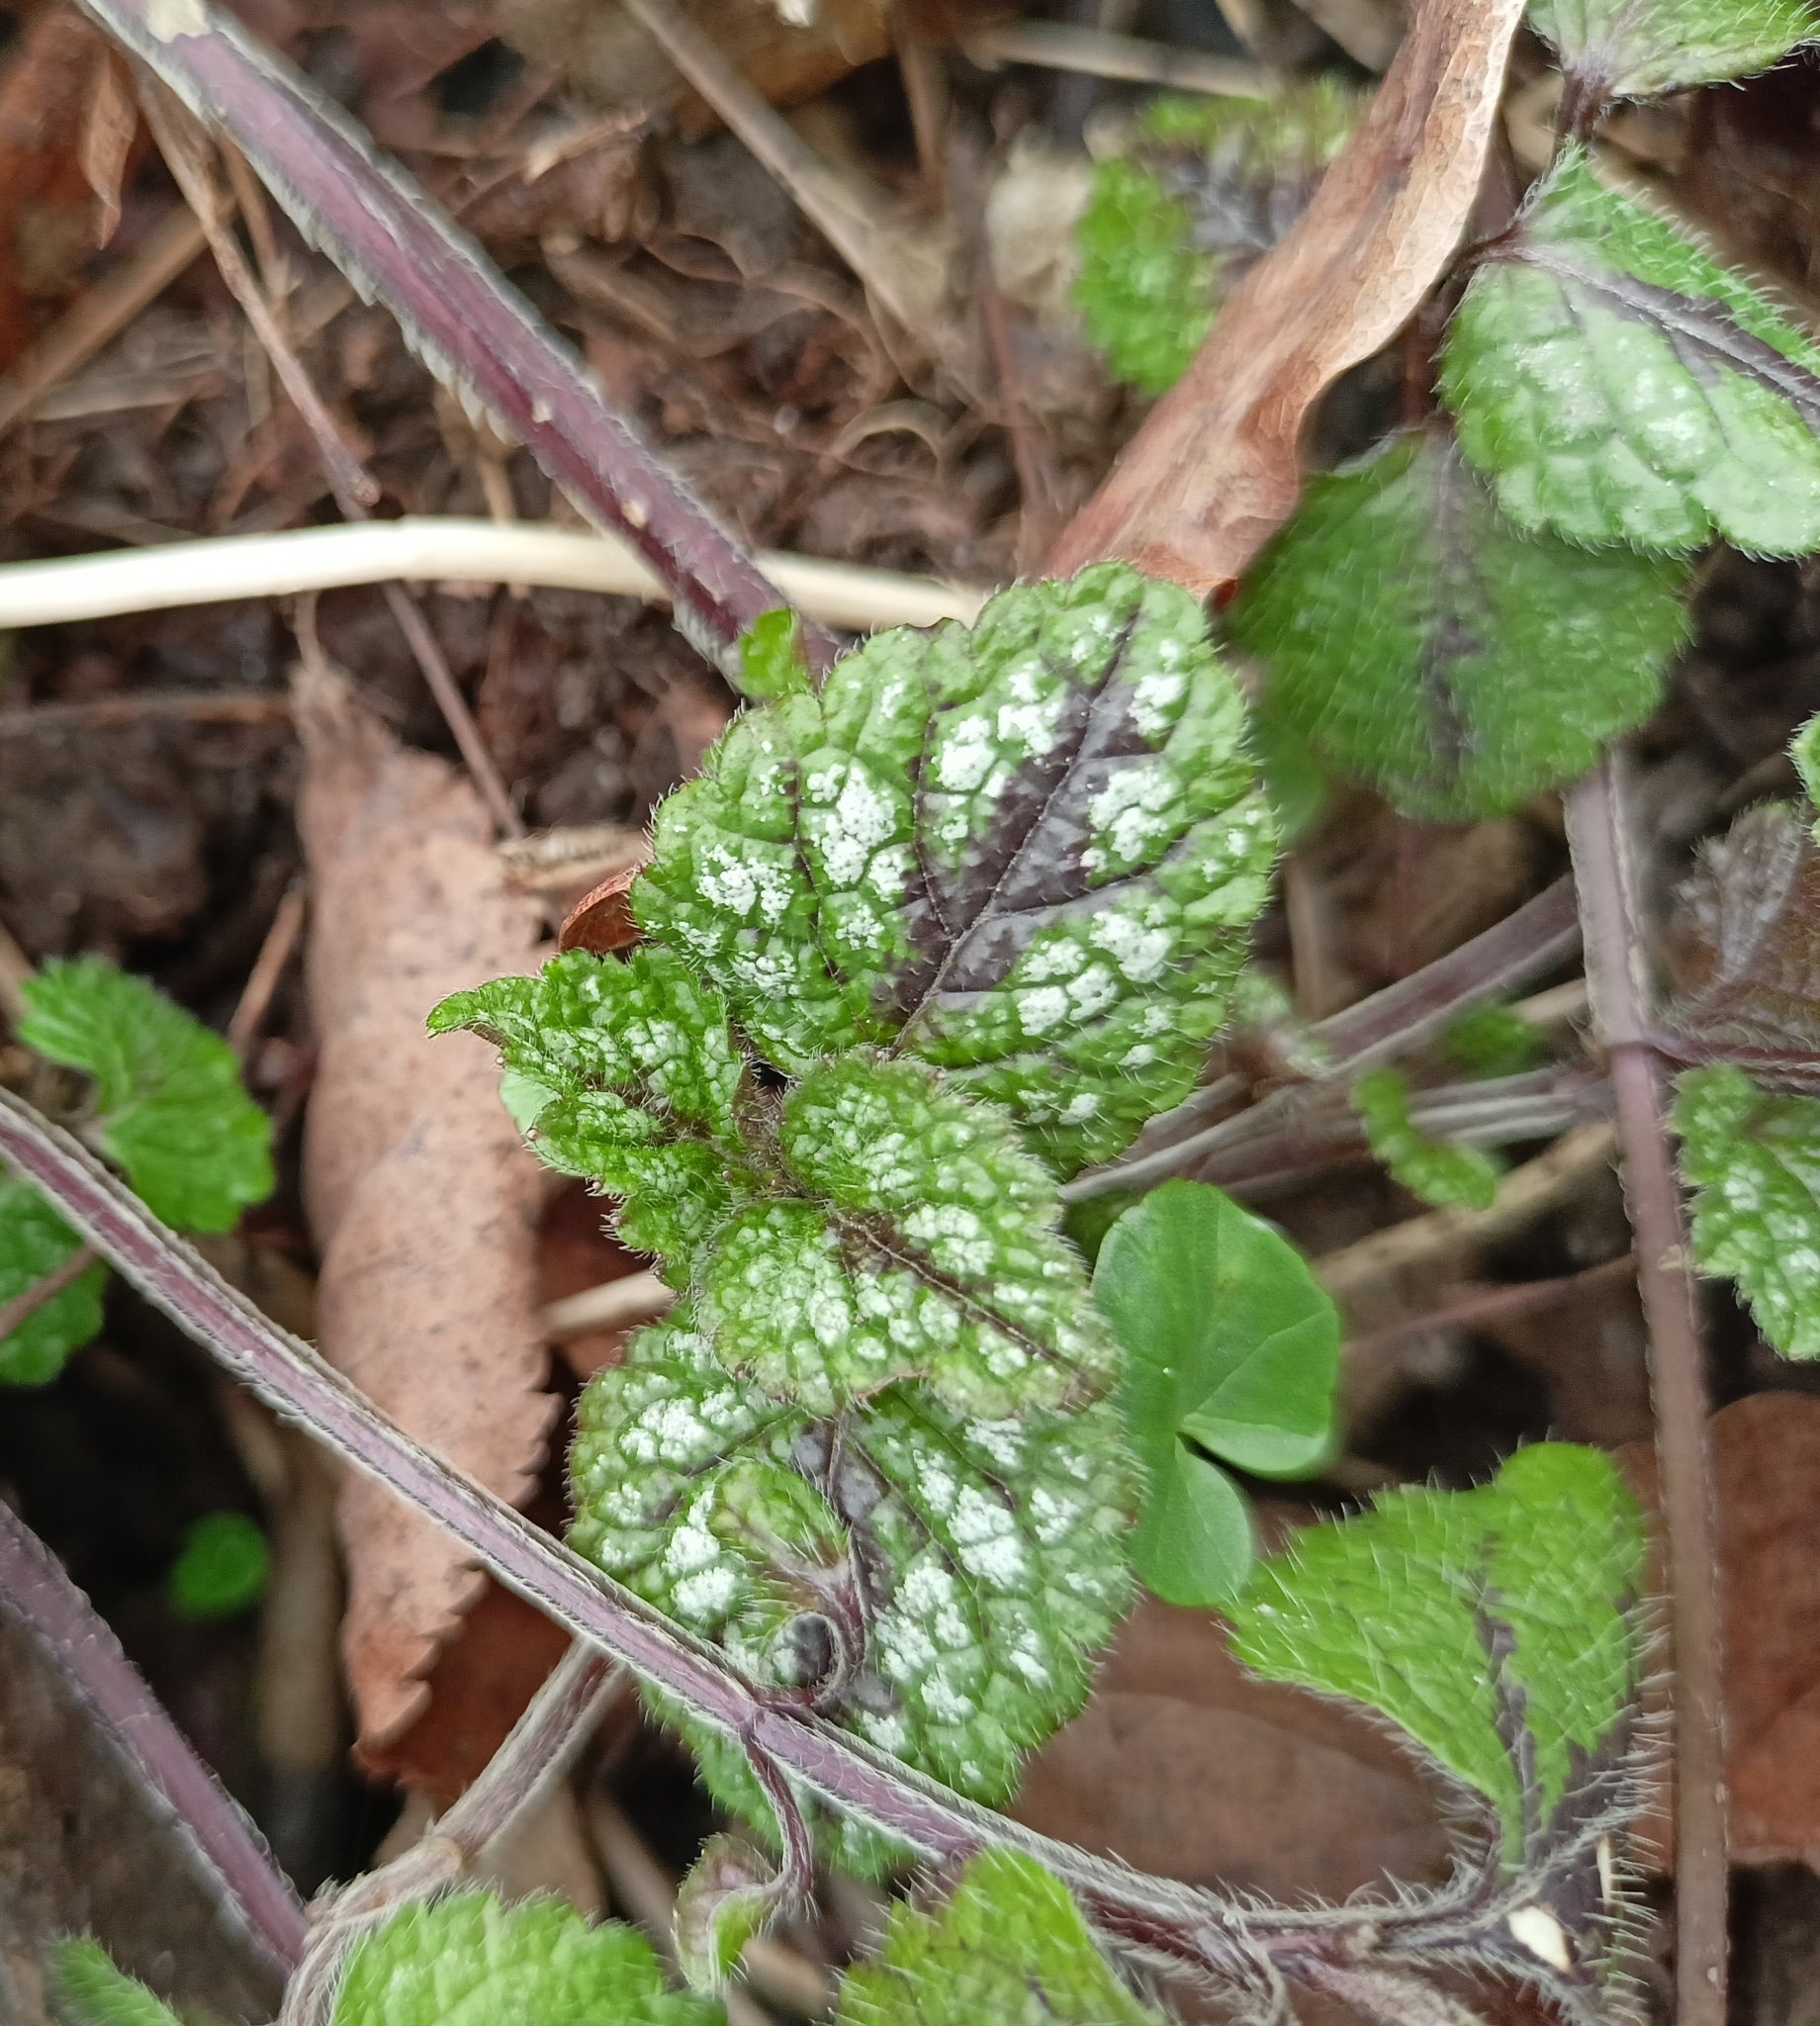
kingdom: Plantae
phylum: Tracheophyta
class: Magnoliopsida
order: Lamiales
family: Lamiaceae
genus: Lamium
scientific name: Lamium galeobdolon
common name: Yellow archangel
